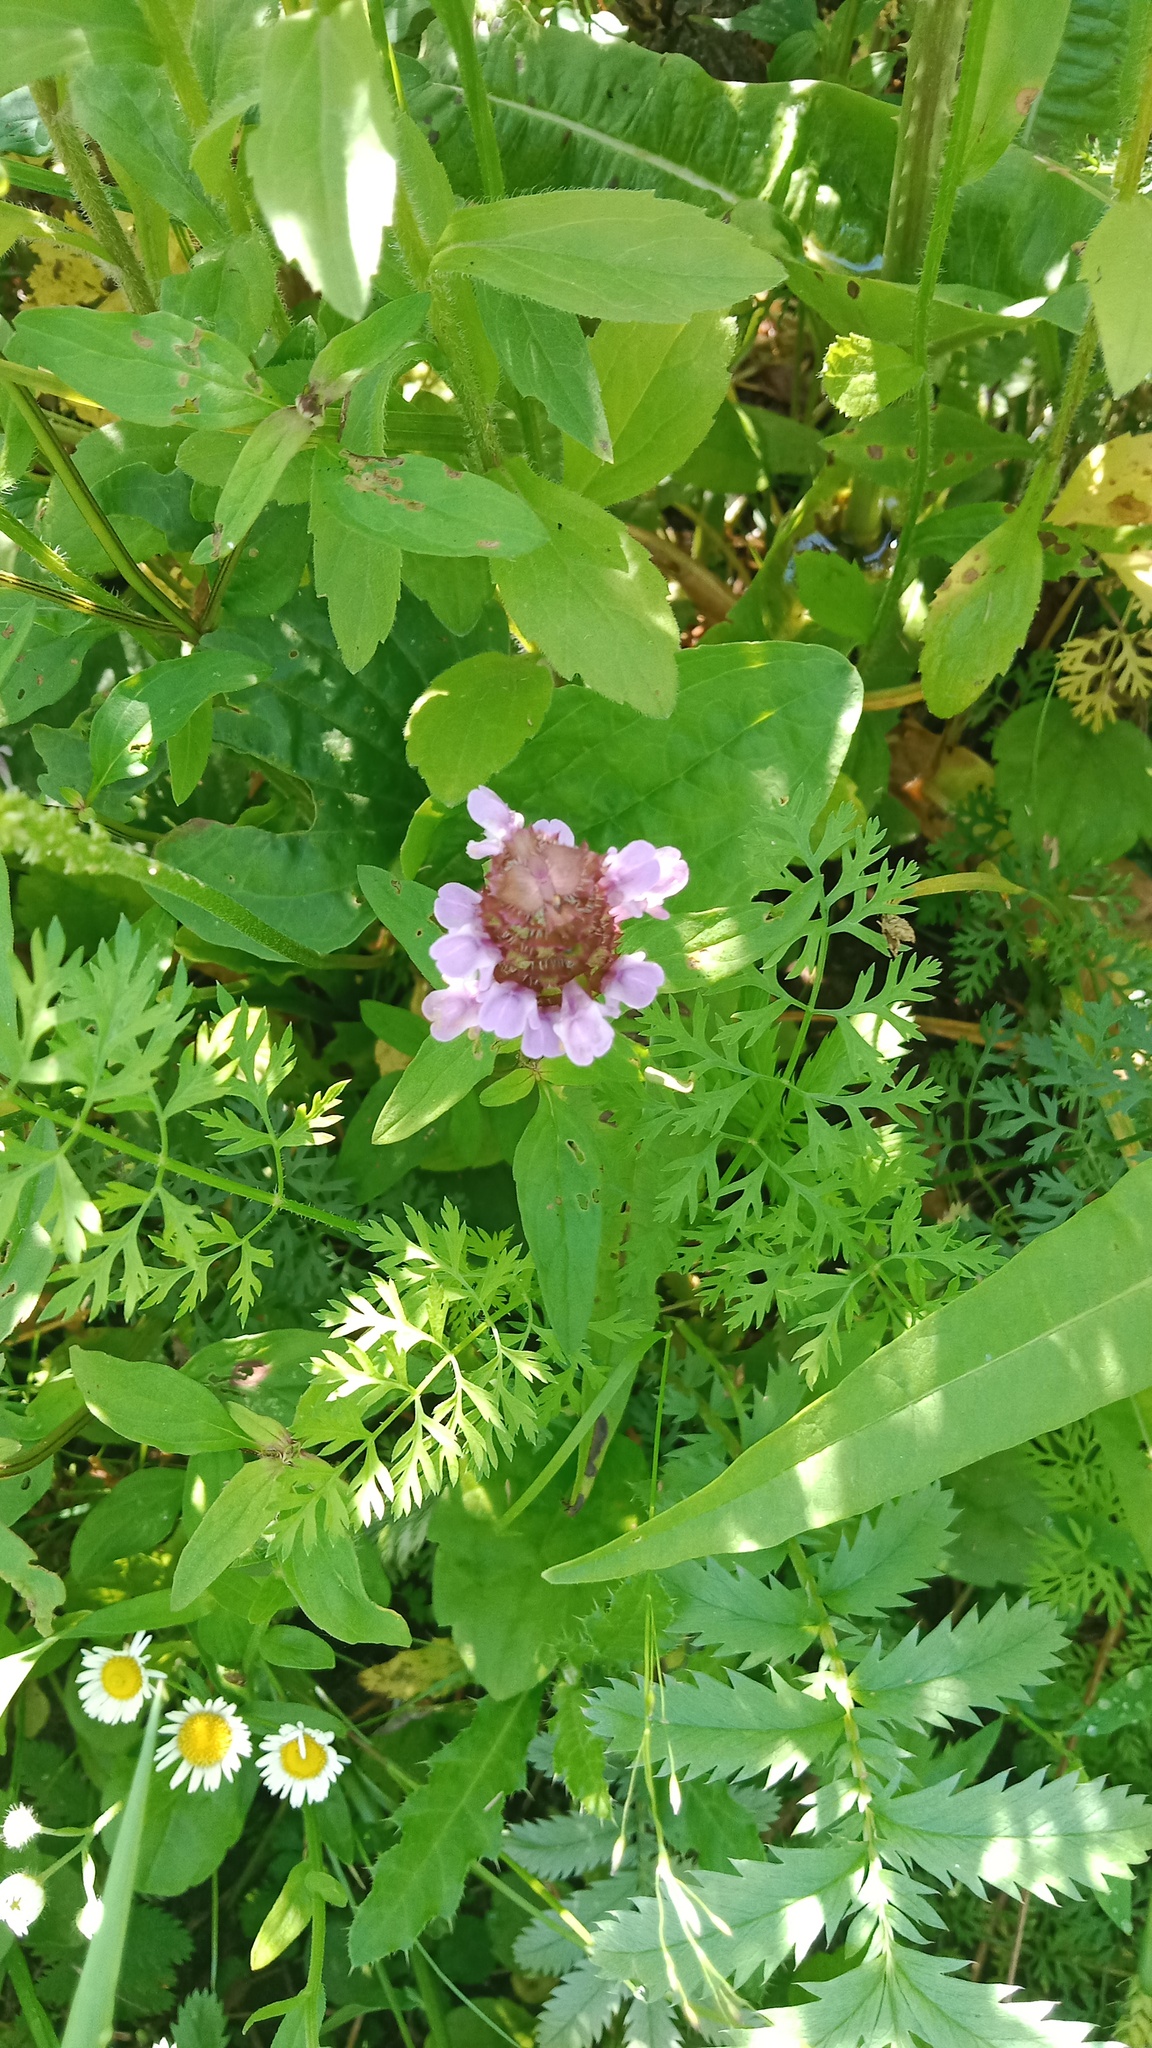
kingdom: Plantae
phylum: Tracheophyta
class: Magnoliopsida
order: Lamiales
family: Lamiaceae
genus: Prunella
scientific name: Prunella vulgaris
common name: Heal-all
